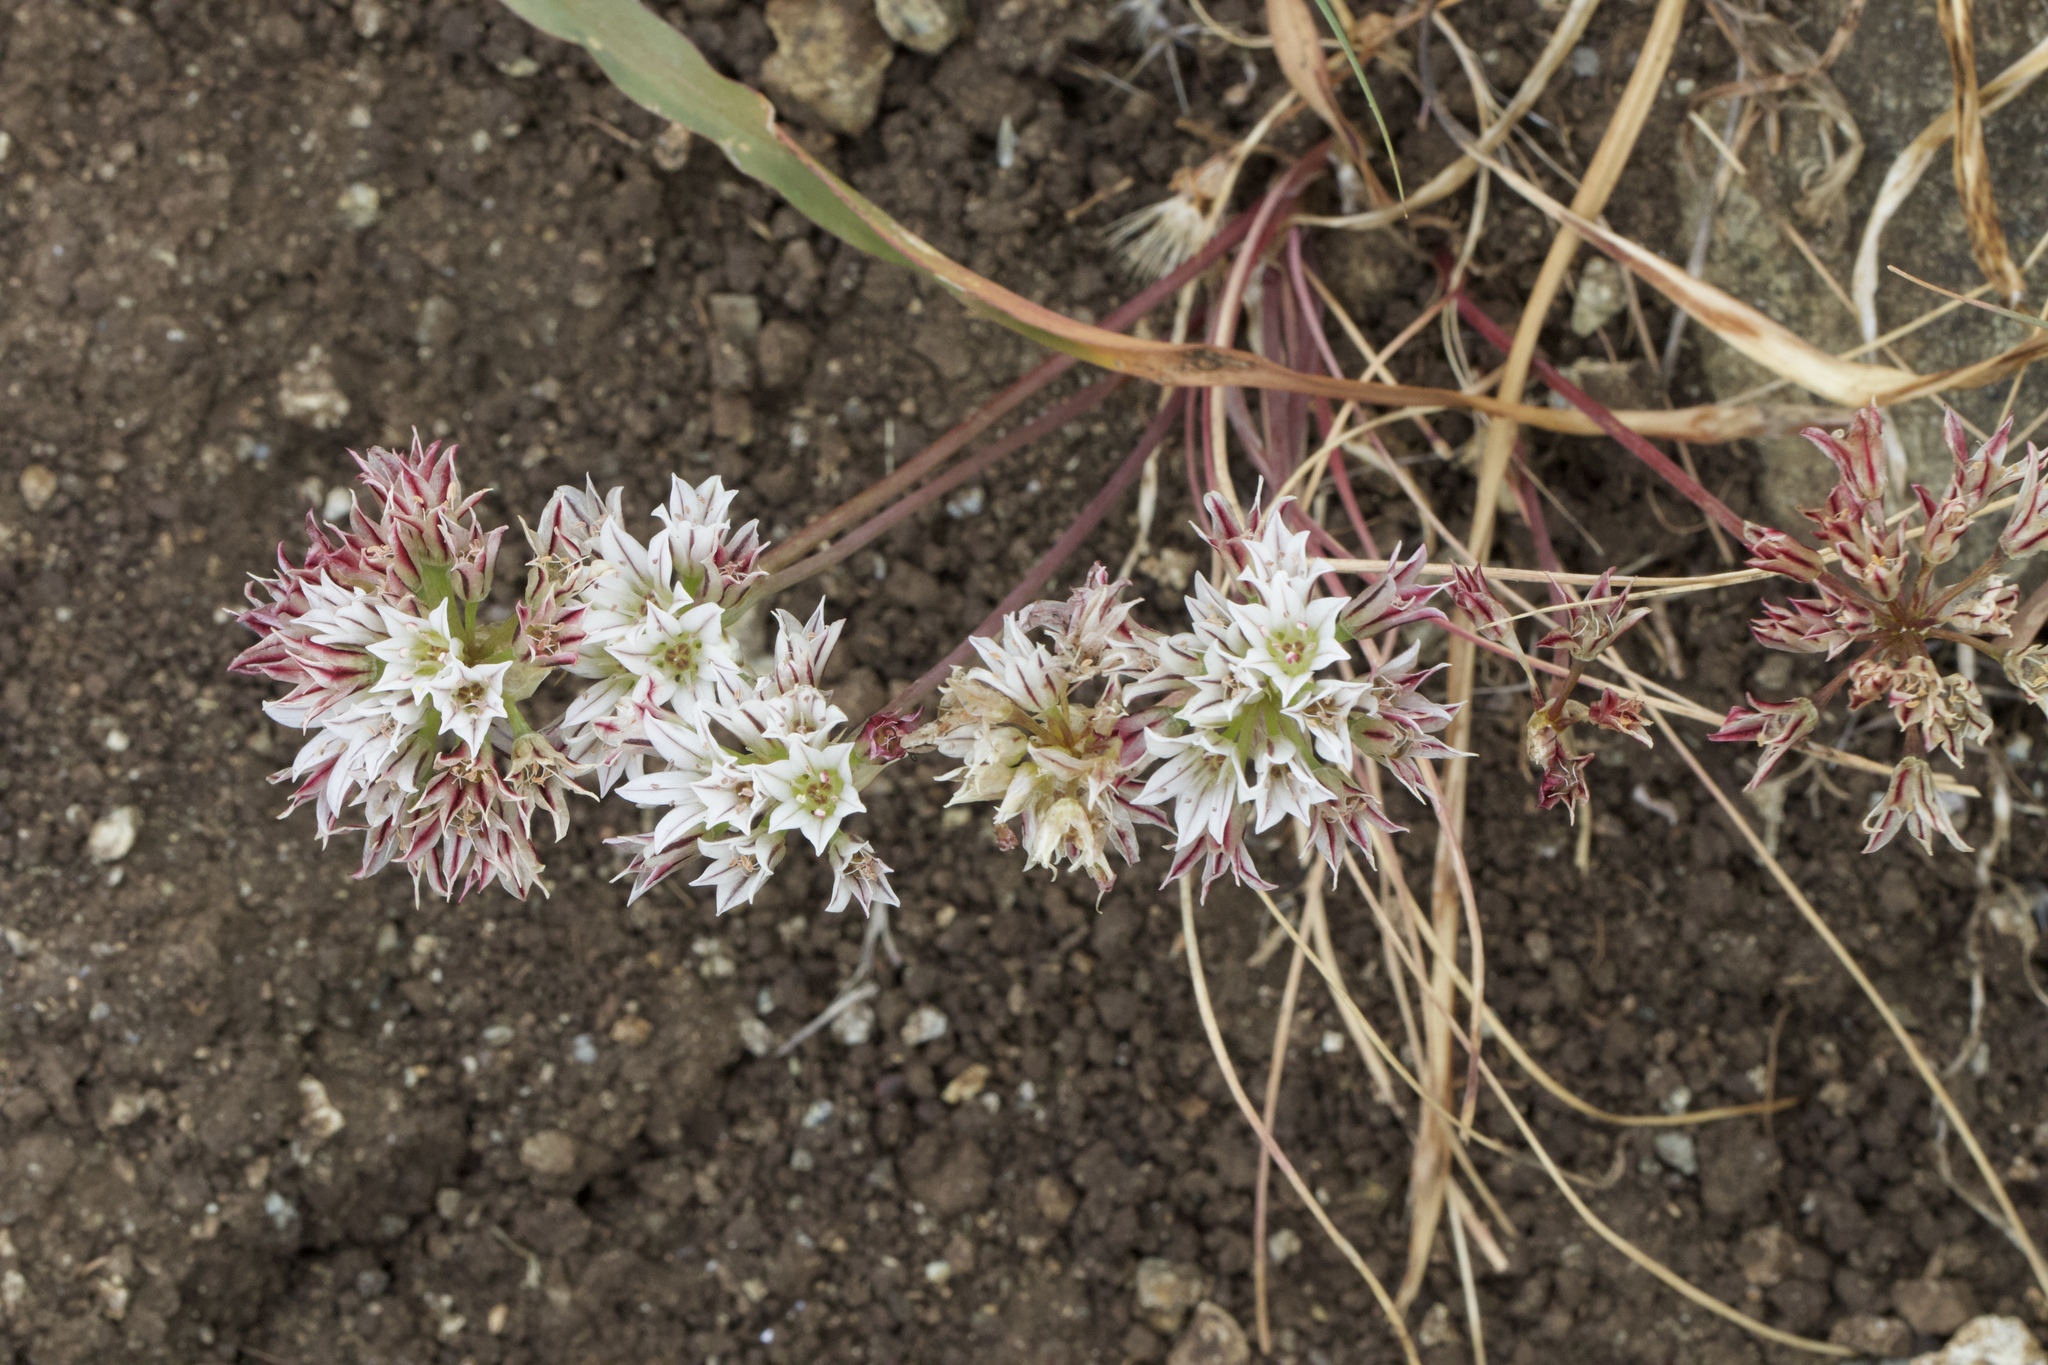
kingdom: Plantae
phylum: Tracheophyta
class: Liliopsida
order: Asparagales
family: Amaryllidaceae
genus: Allium
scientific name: Allium lacunosum
